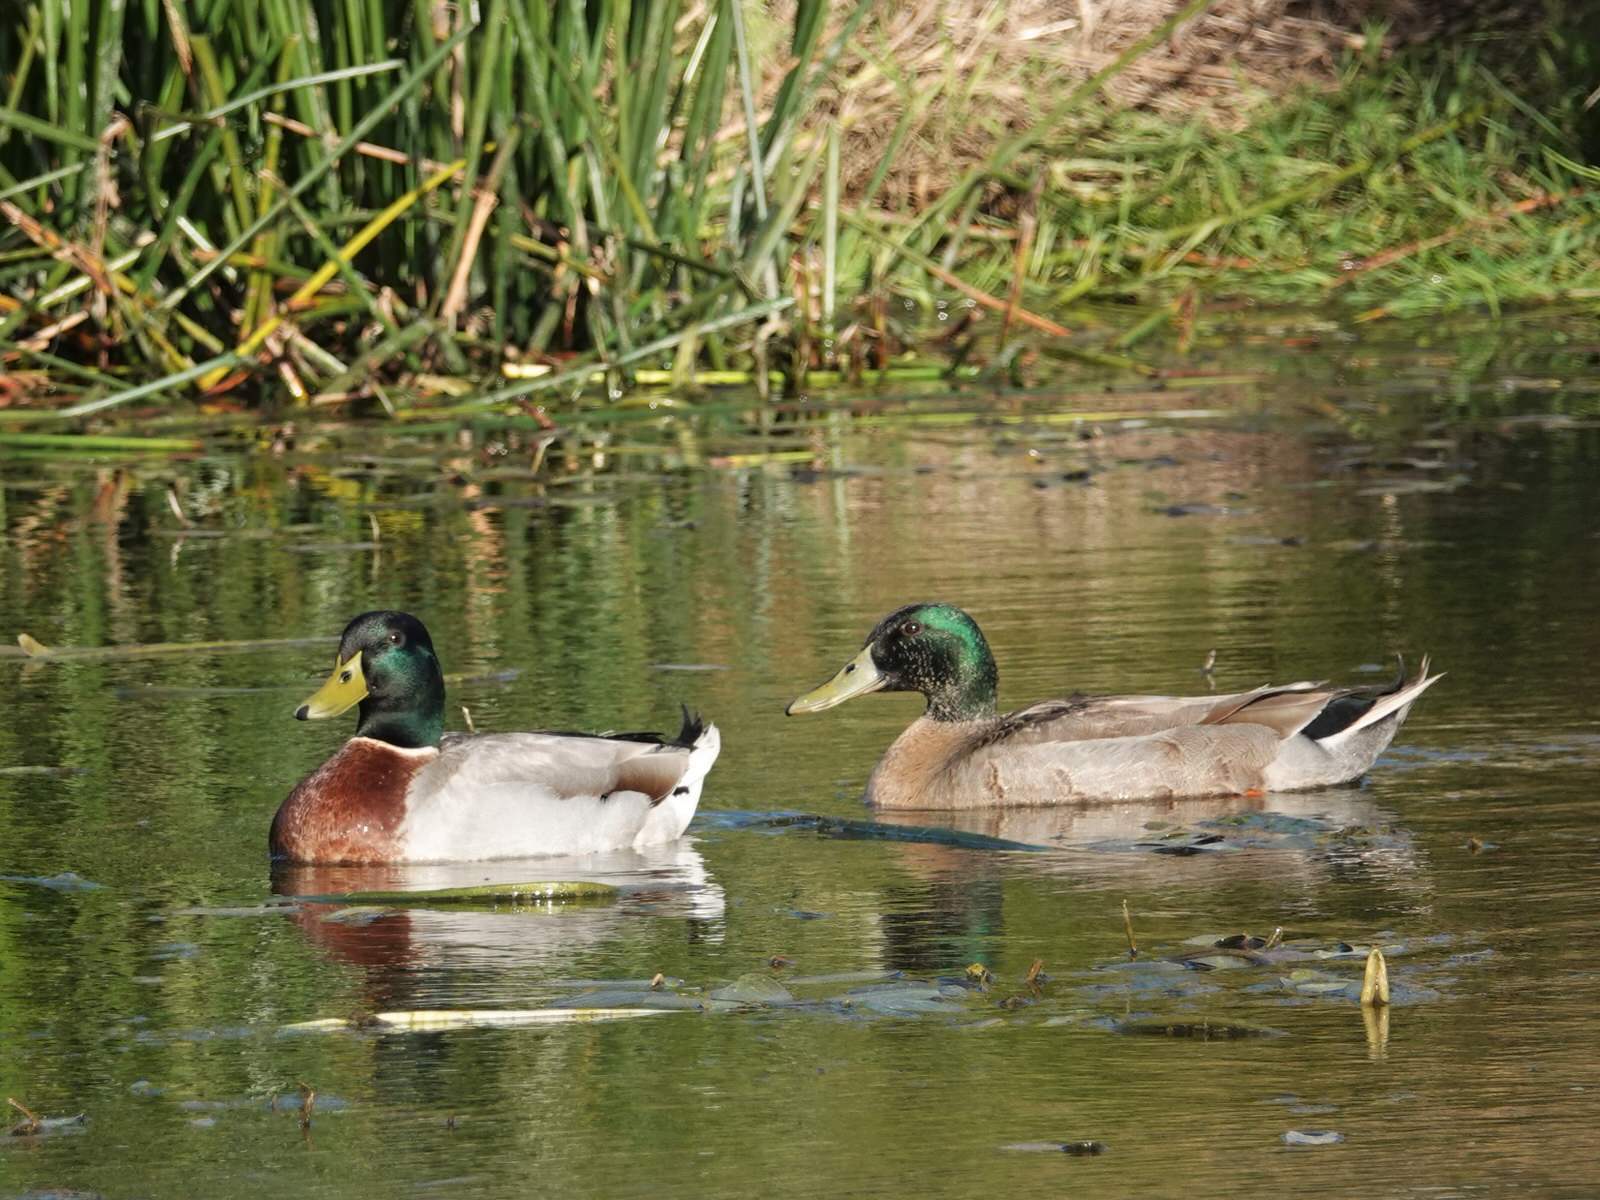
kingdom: Animalia
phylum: Chordata
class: Aves
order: Anseriformes
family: Anatidae
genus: Anas
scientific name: Anas
